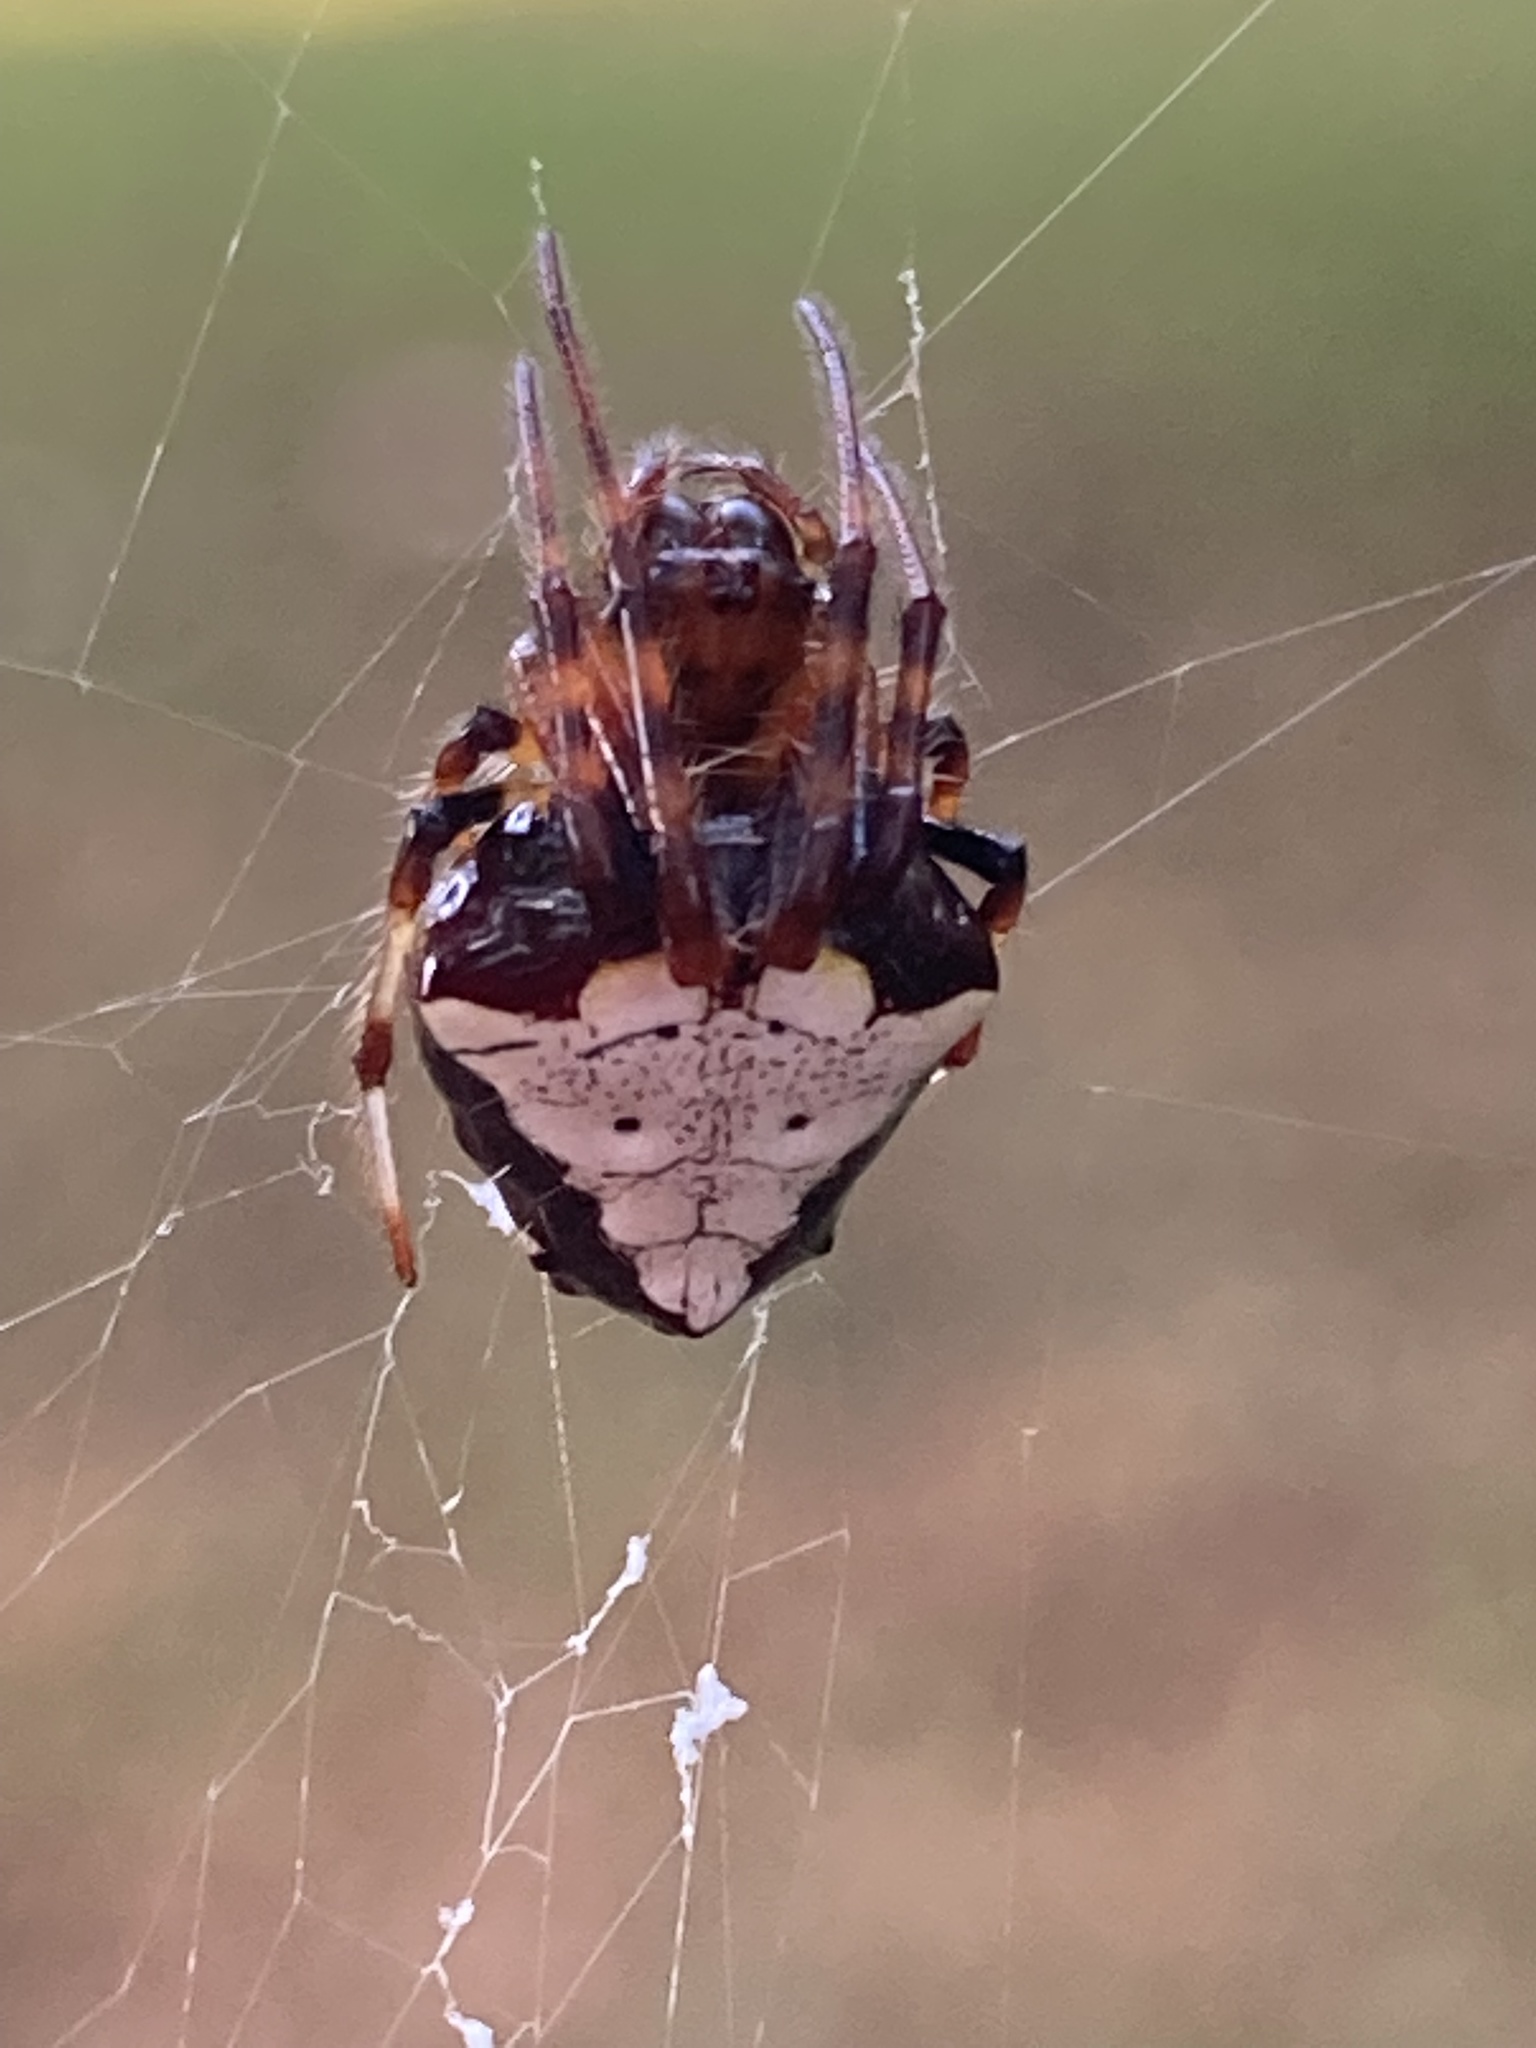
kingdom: Animalia
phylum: Arthropoda
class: Arachnida
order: Araneae
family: Araneidae
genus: Verrucosa
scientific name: Verrucosa arenata
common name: Orb weavers
